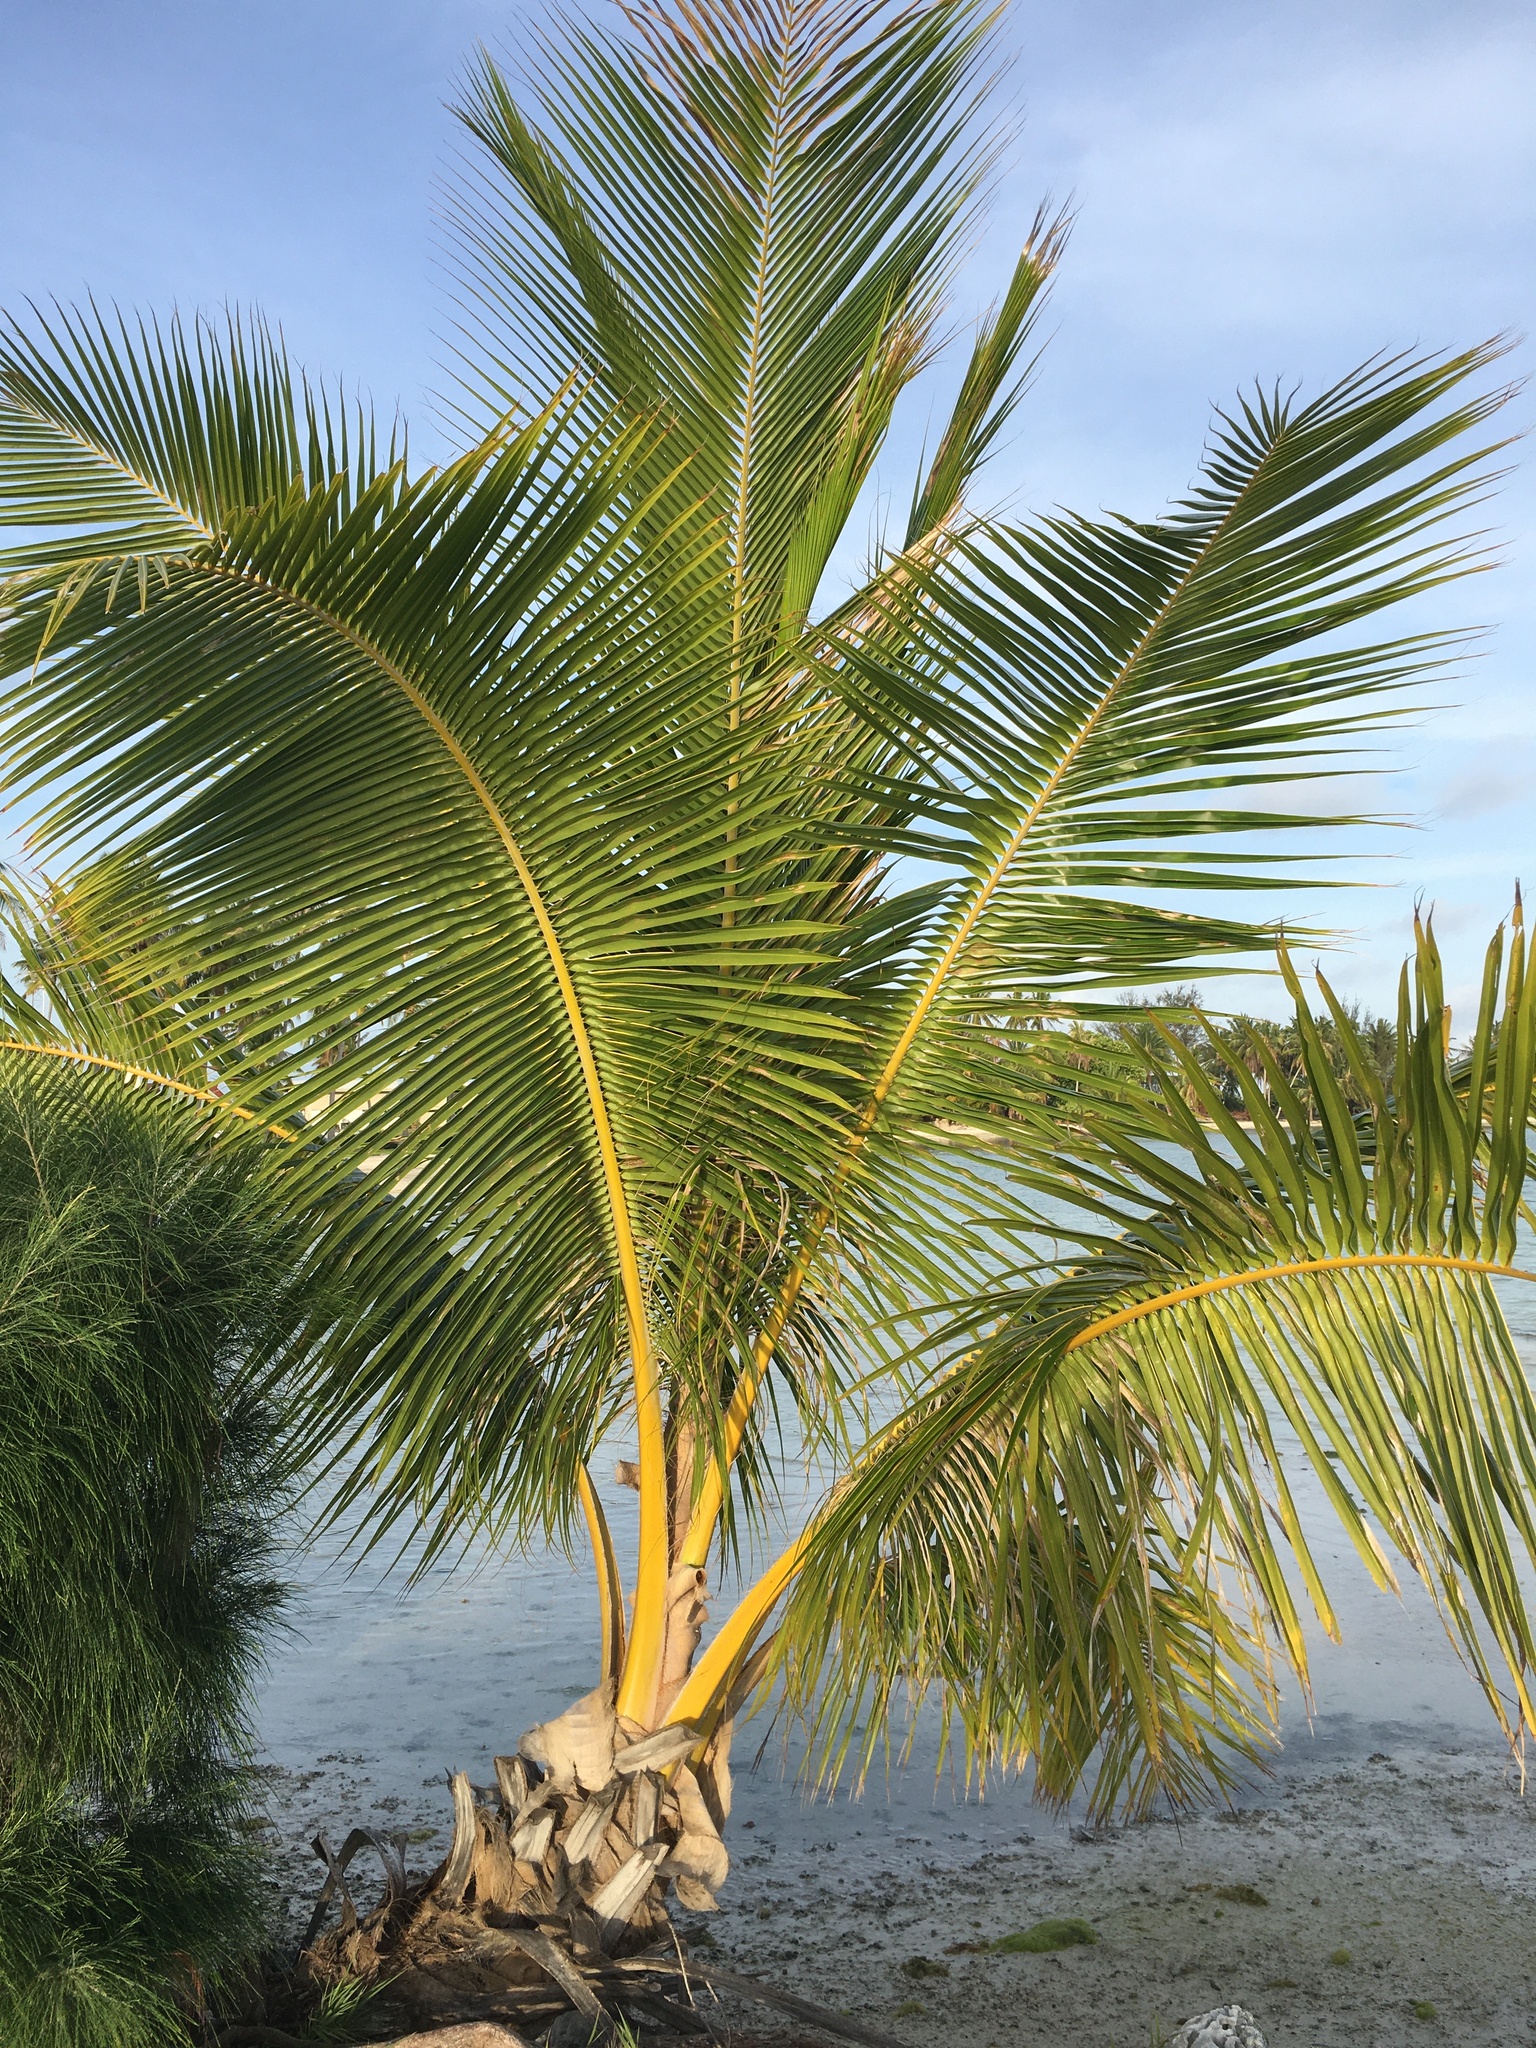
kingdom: Plantae
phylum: Tracheophyta
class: Liliopsida
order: Arecales
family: Arecaceae
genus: Cocos
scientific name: Cocos nucifera
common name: Coconut palm
